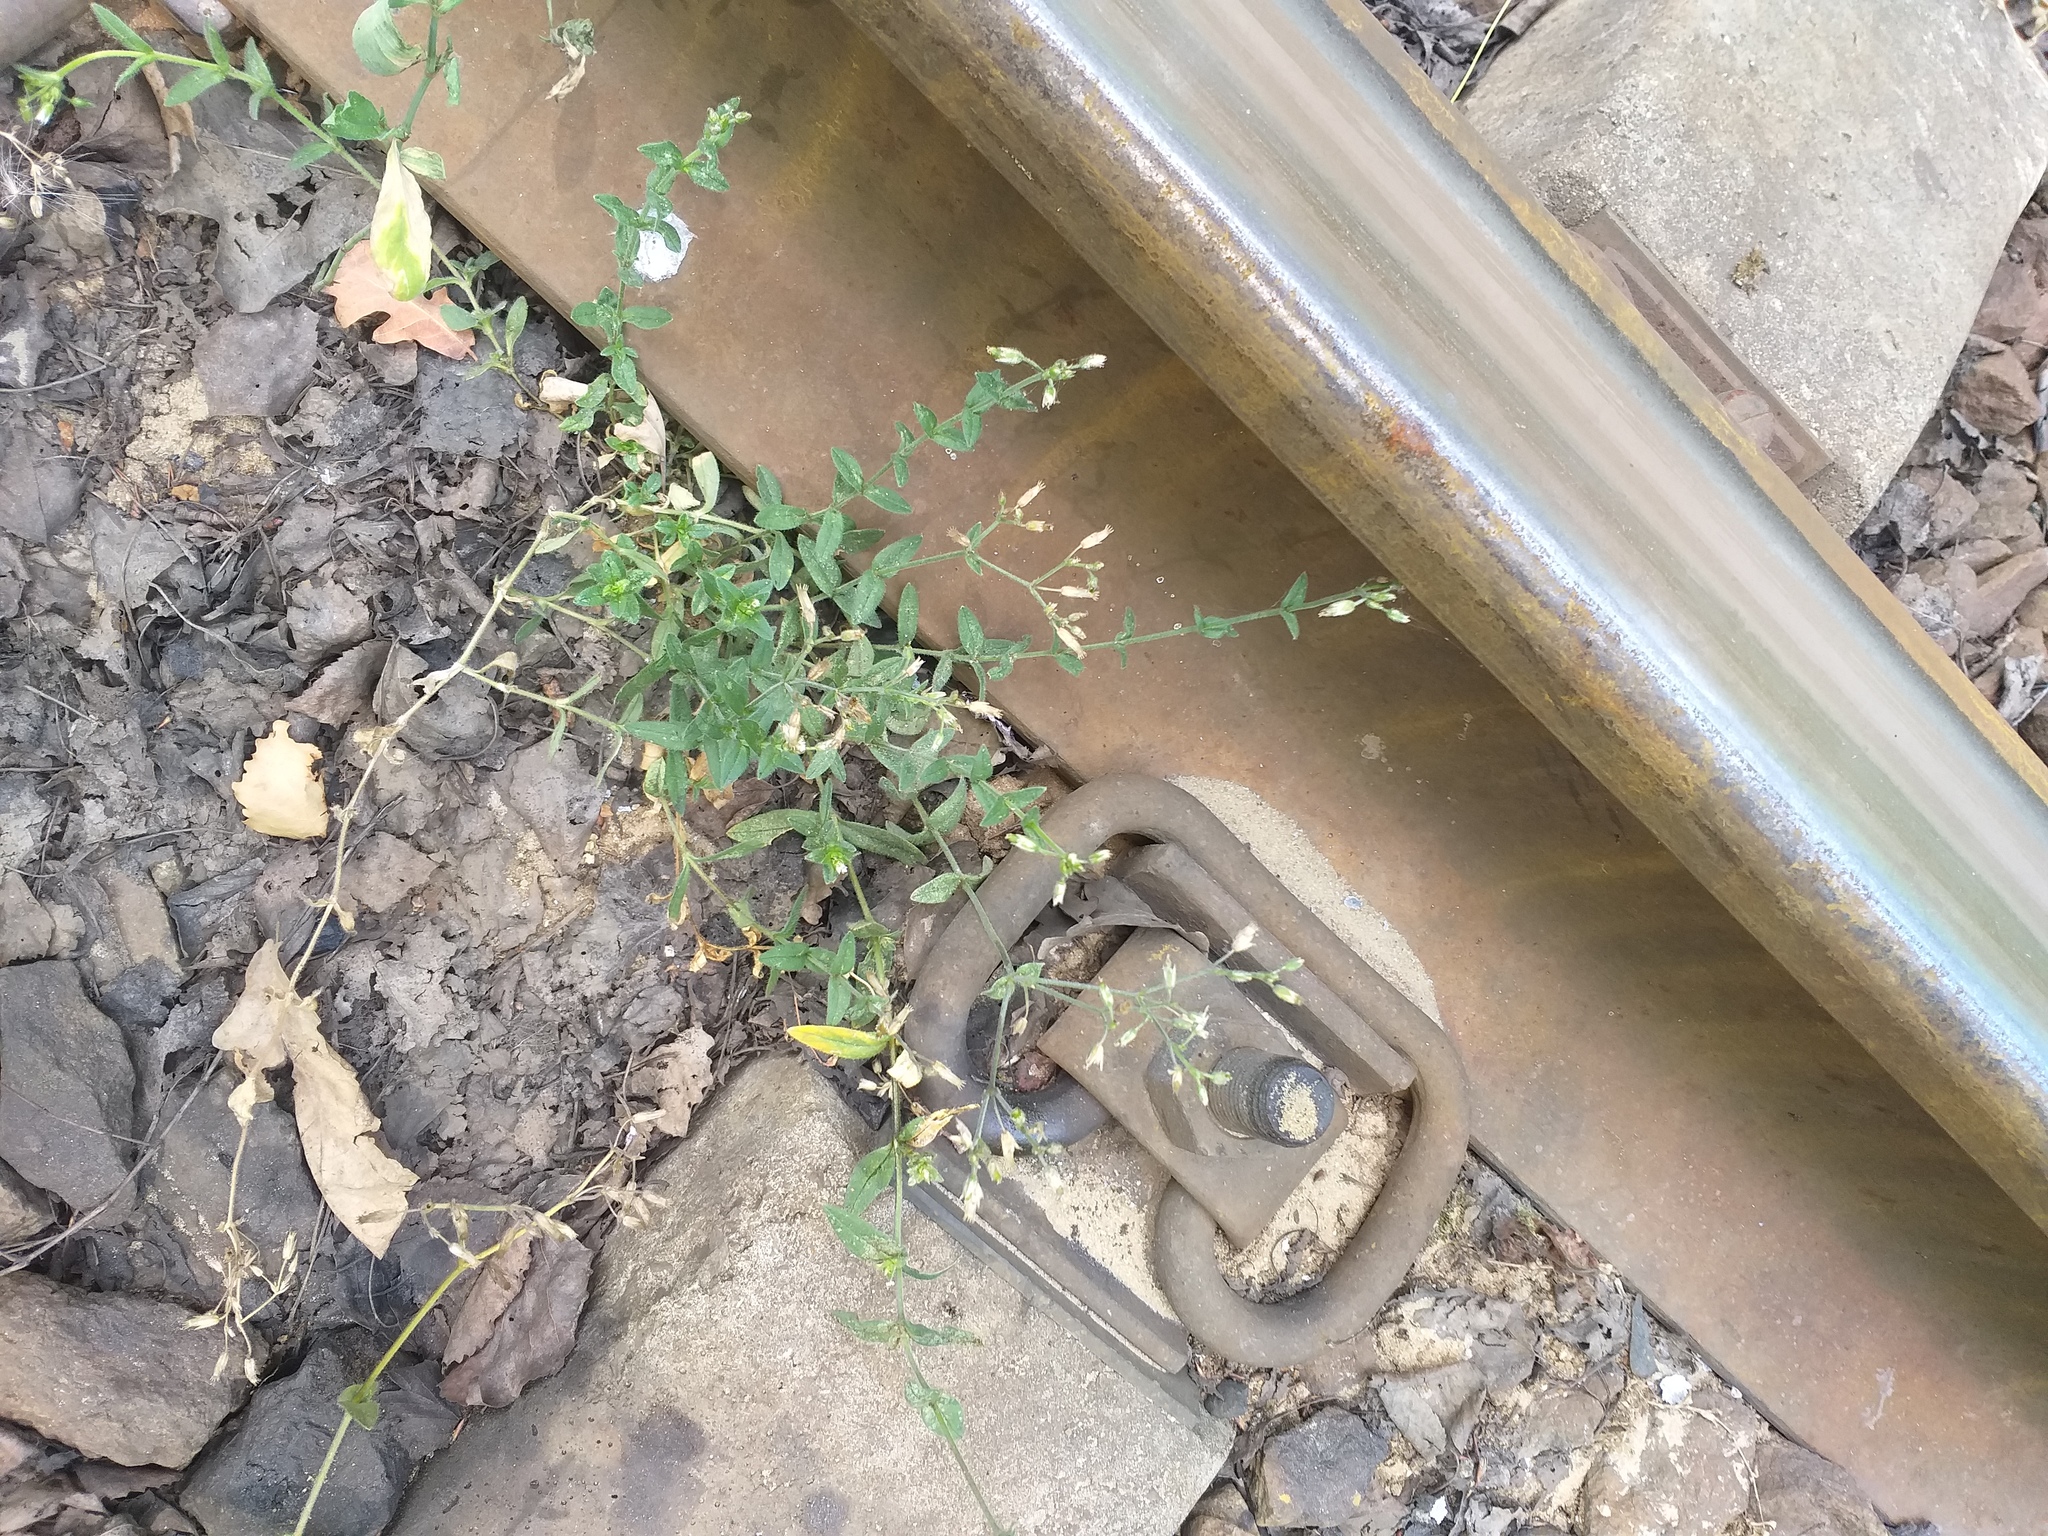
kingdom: Plantae
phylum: Tracheophyta
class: Magnoliopsida
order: Caryophyllales
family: Caryophyllaceae
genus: Cerastium
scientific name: Cerastium holosteoides
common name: Big chickweed
